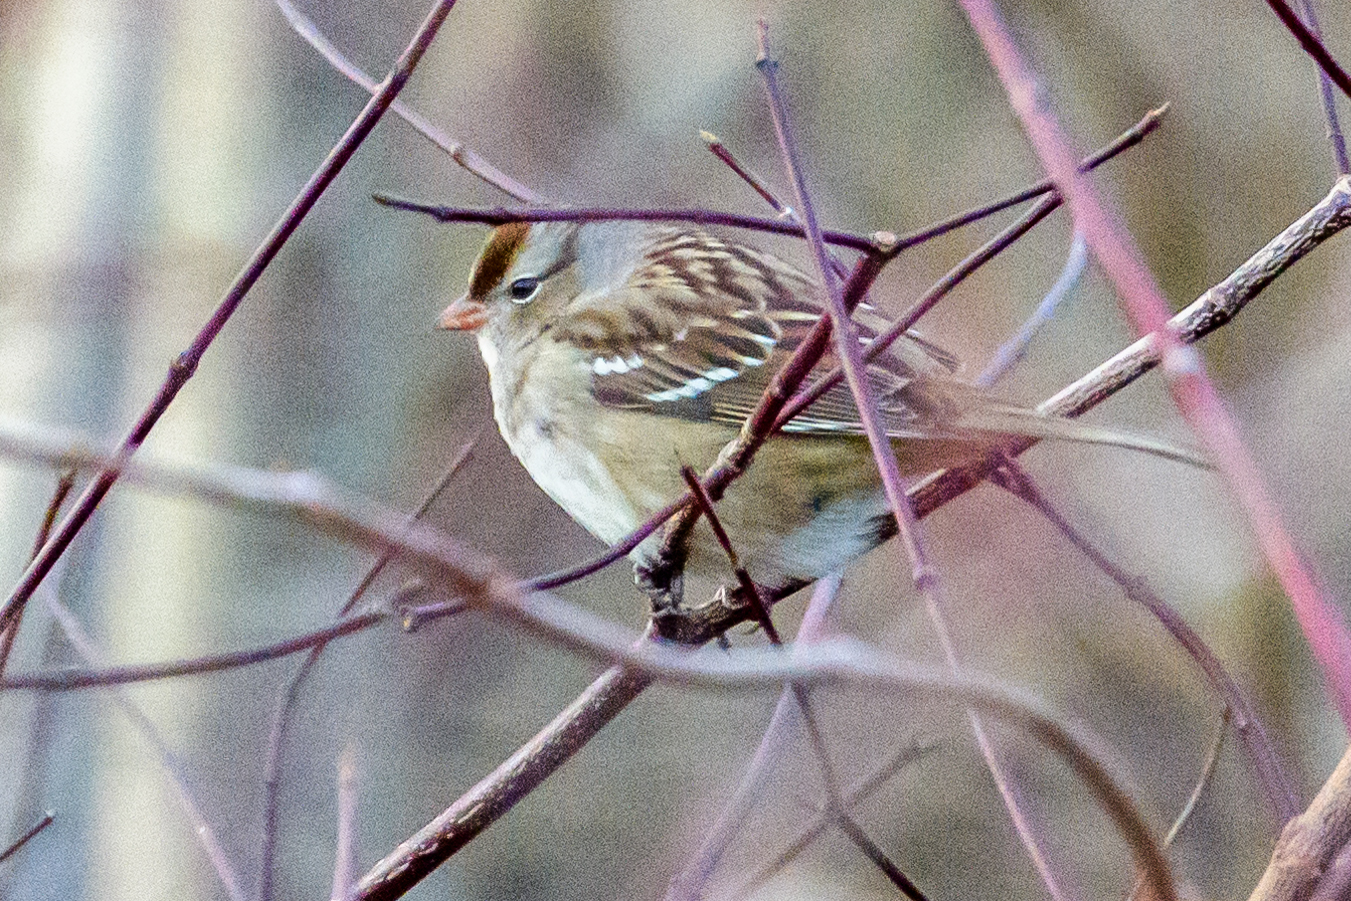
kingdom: Animalia
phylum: Chordata
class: Aves
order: Passeriformes
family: Passerellidae
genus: Zonotrichia
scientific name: Zonotrichia leucophrys
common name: White-crowned sparrow
